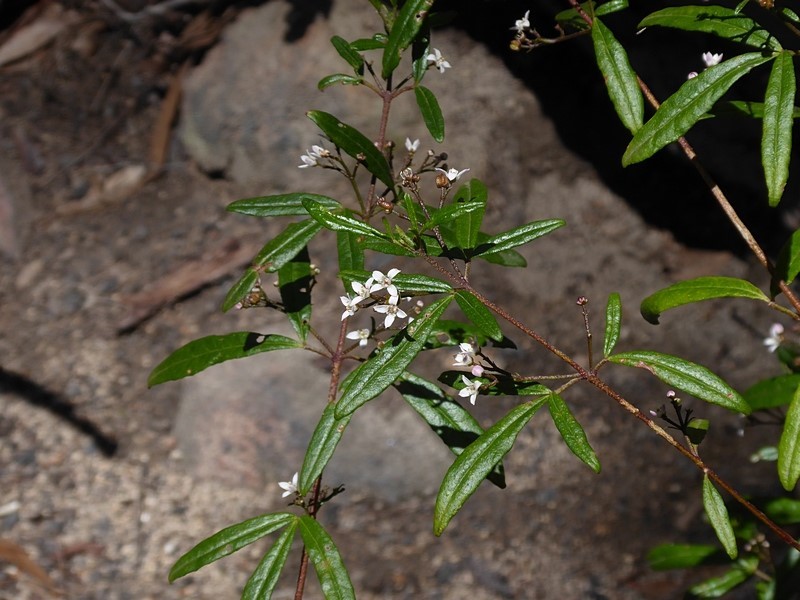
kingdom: Plantae
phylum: Tracheophyta
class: Magnoliopsida
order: Sapindales
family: Rutaceae
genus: Zieria
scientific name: Zieria smithii
